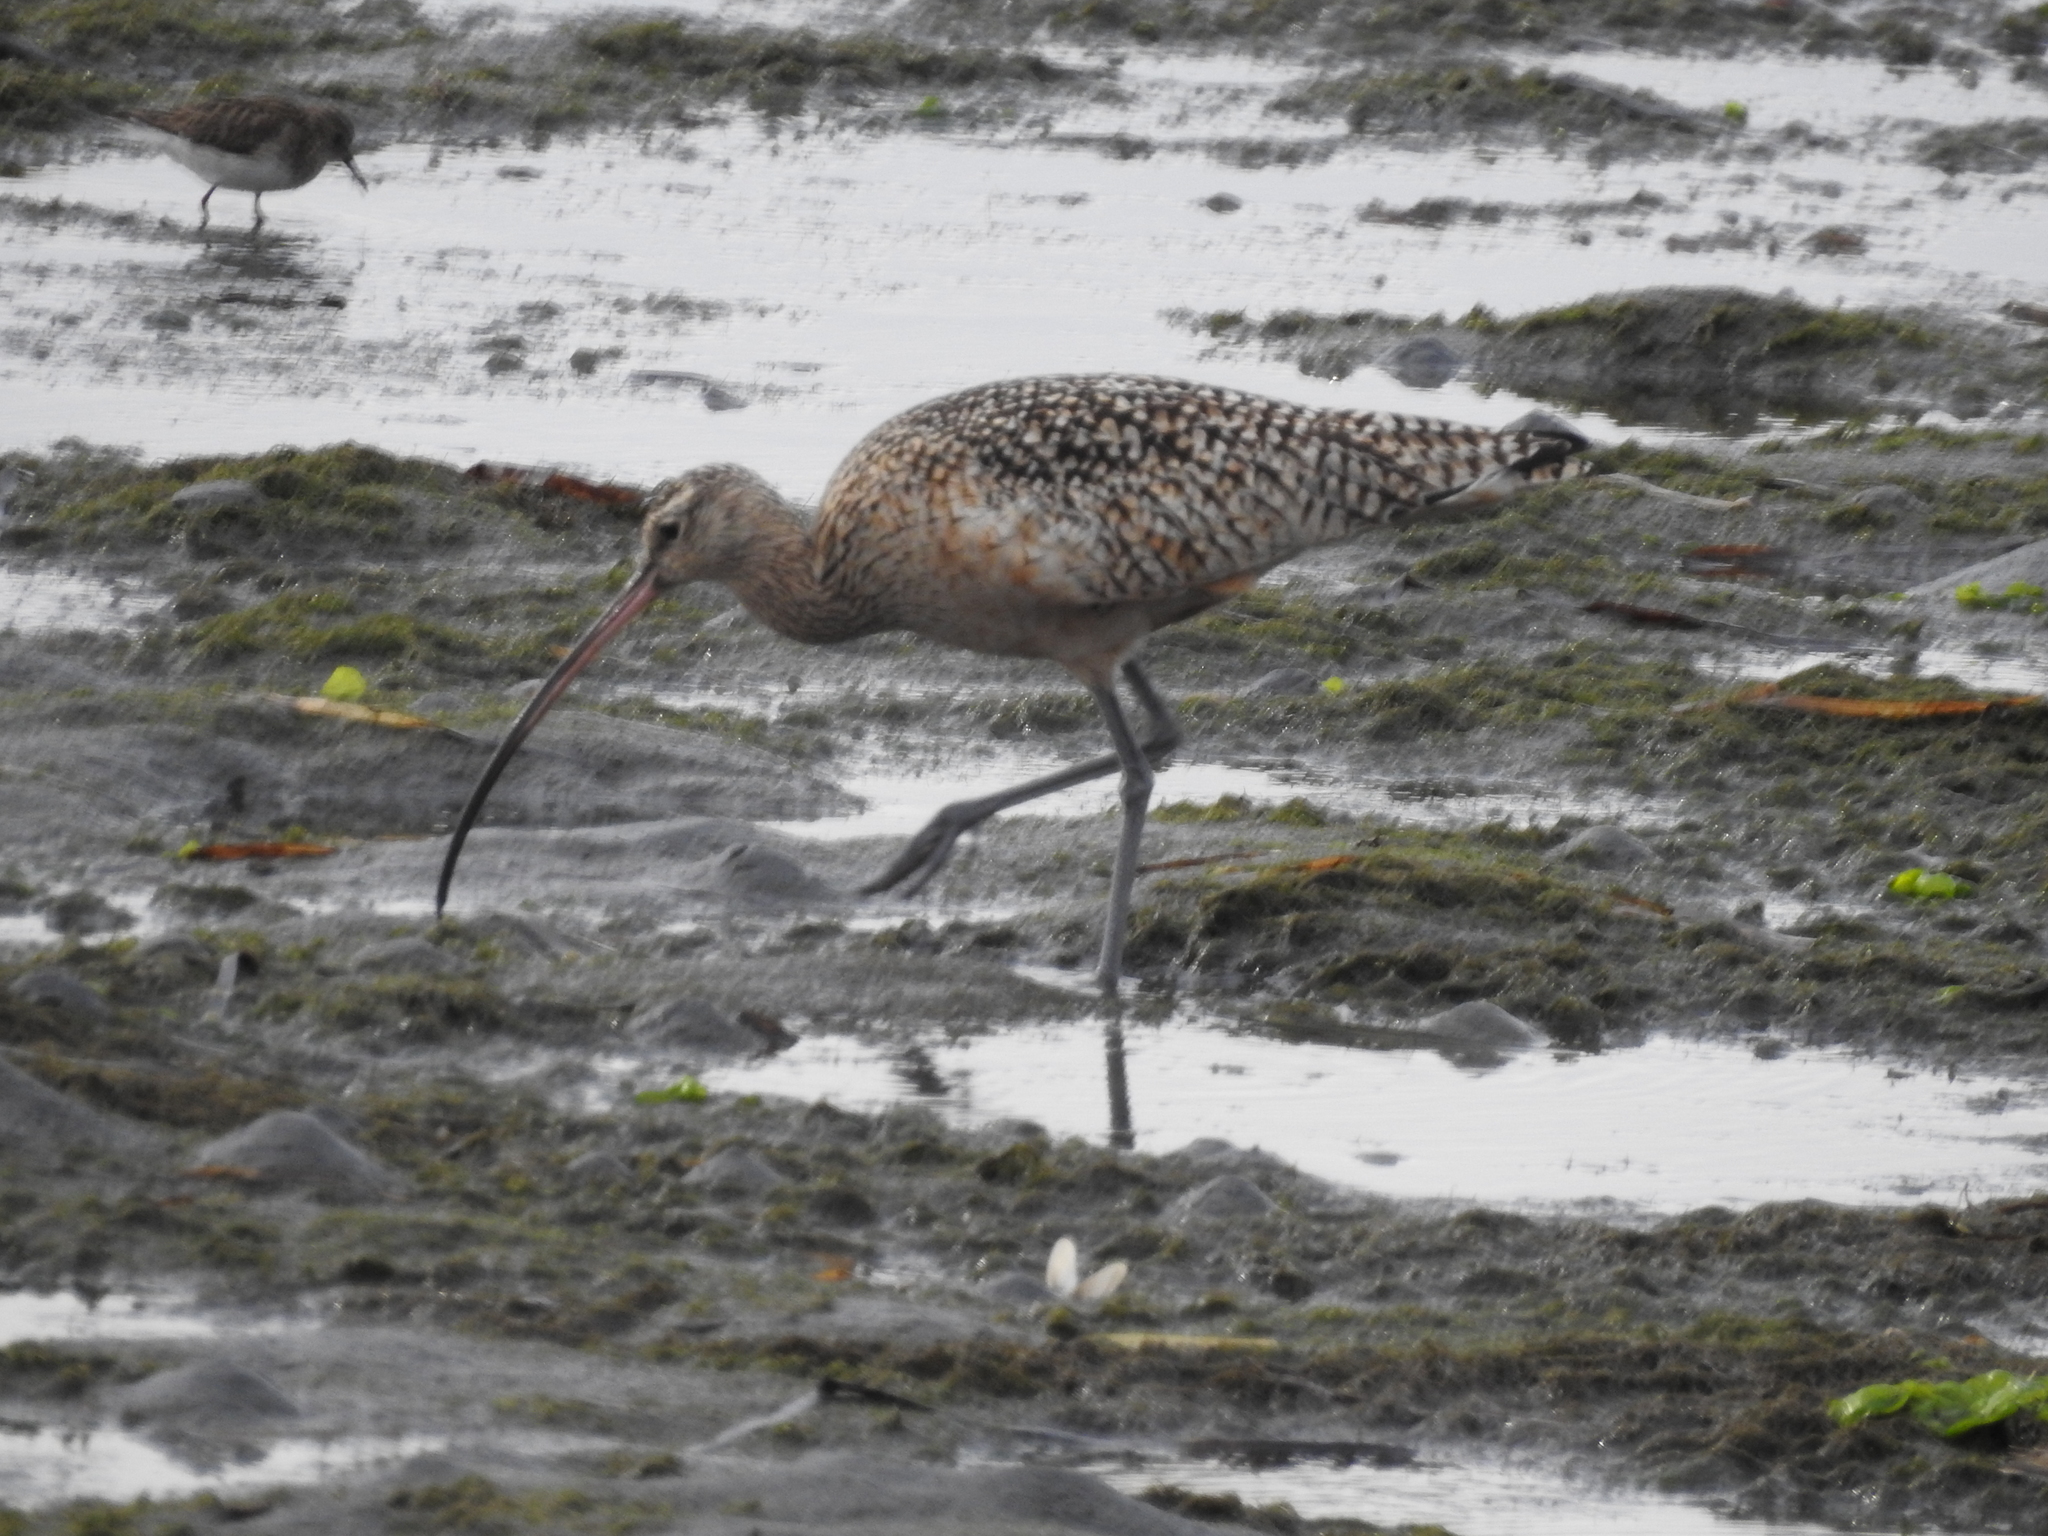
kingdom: Animalia
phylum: Chordata
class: Aves
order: Charadriiformes
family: Scolopacidae
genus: Numenius
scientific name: Numenius americanus
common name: Long-billed curlew
